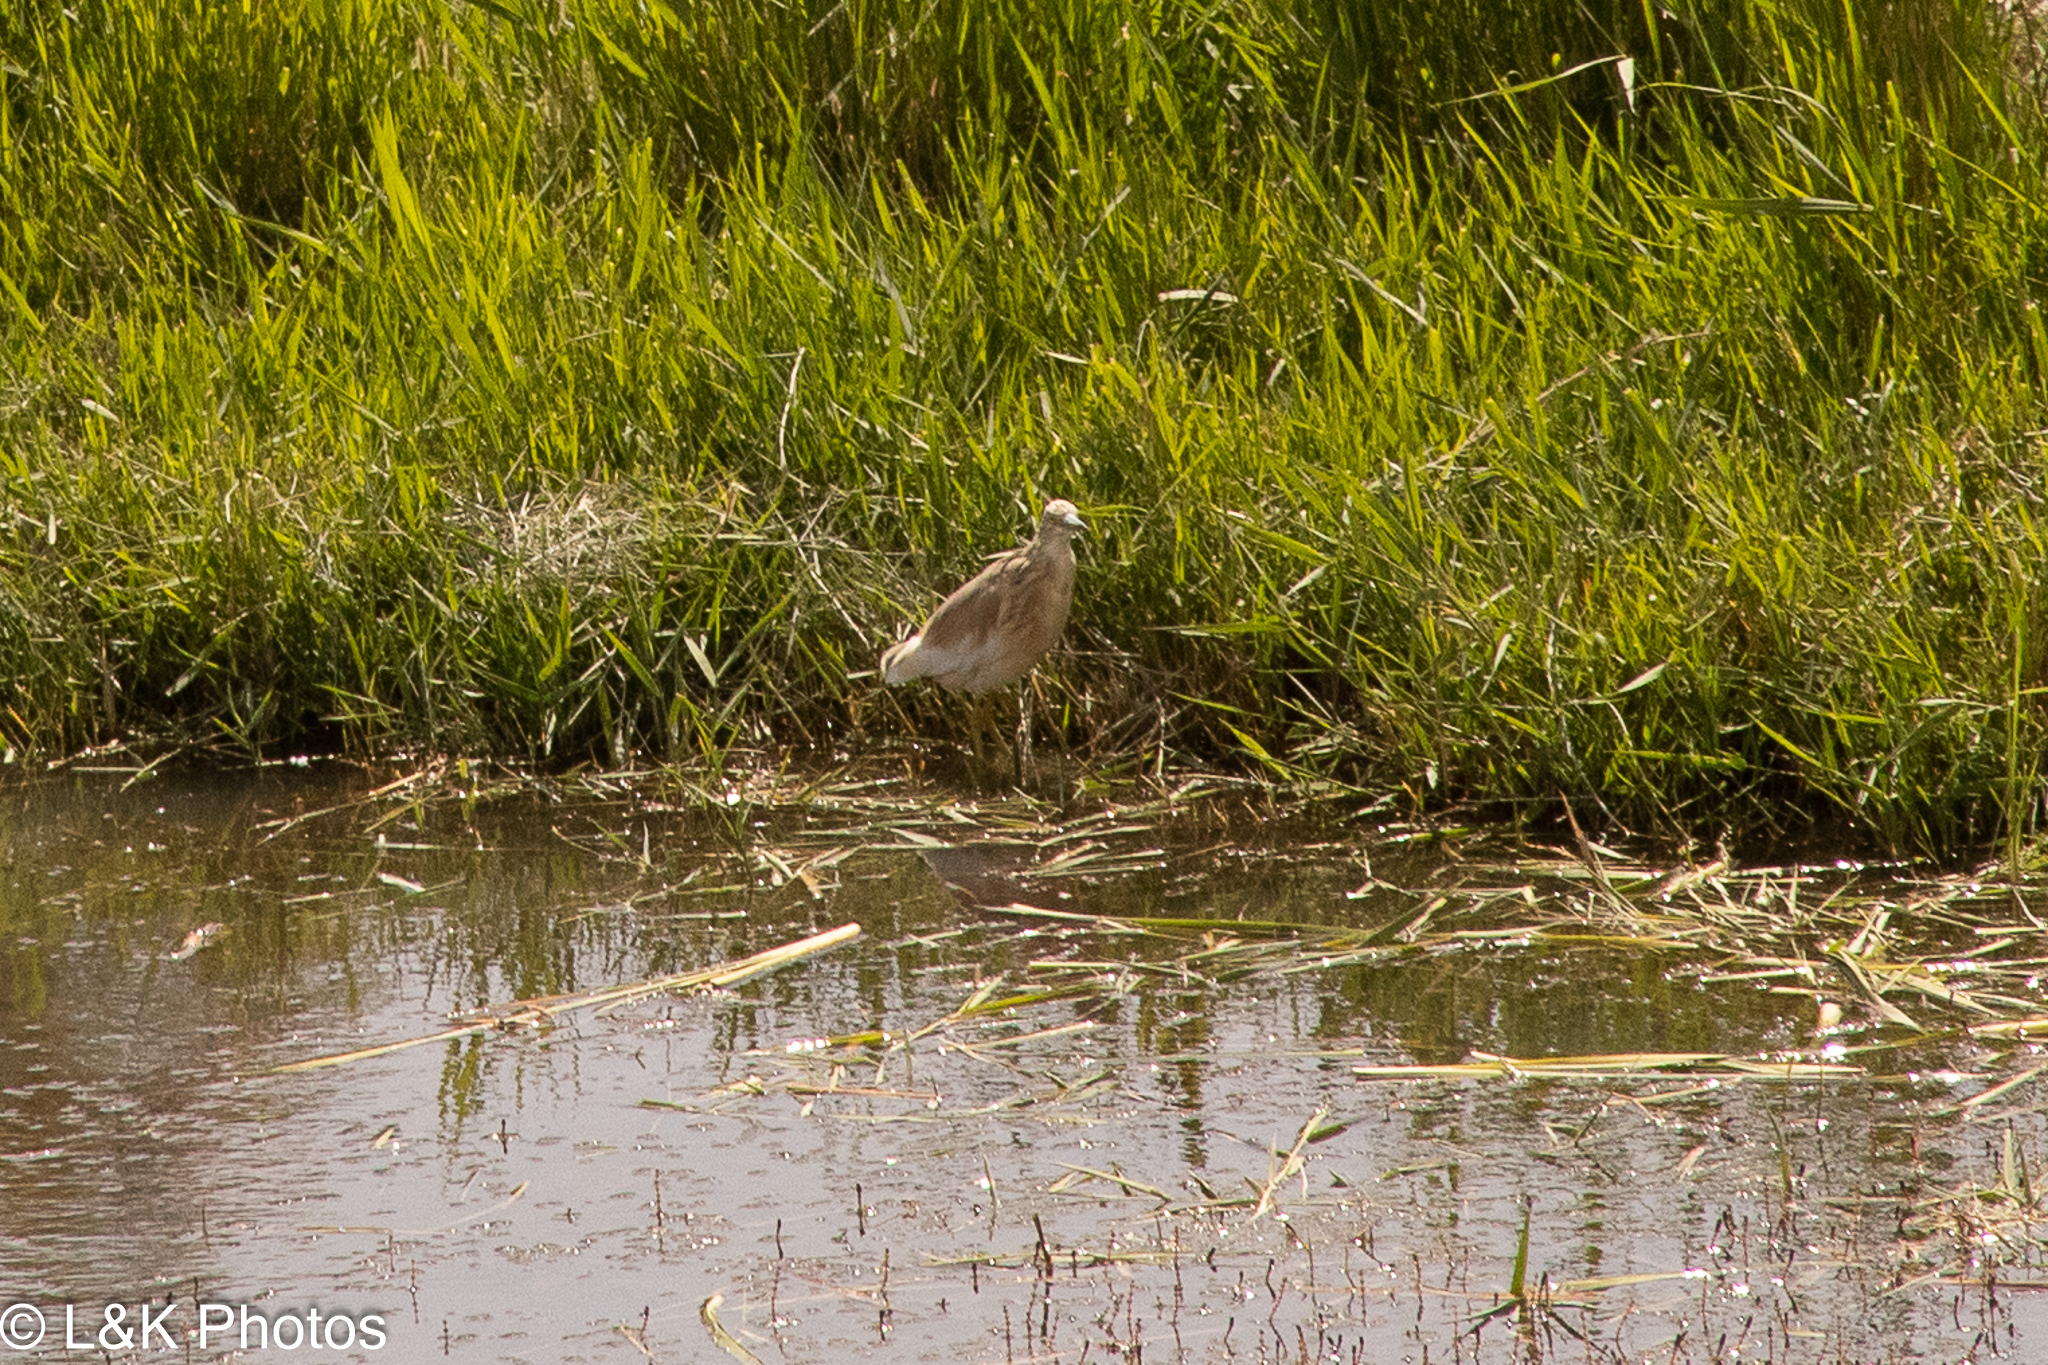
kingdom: Animalia
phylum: Chordata
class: Aves
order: Pelecaniformes
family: Ardeidae
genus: Ardeola
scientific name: Ardeola ralloides
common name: Squacco heron
